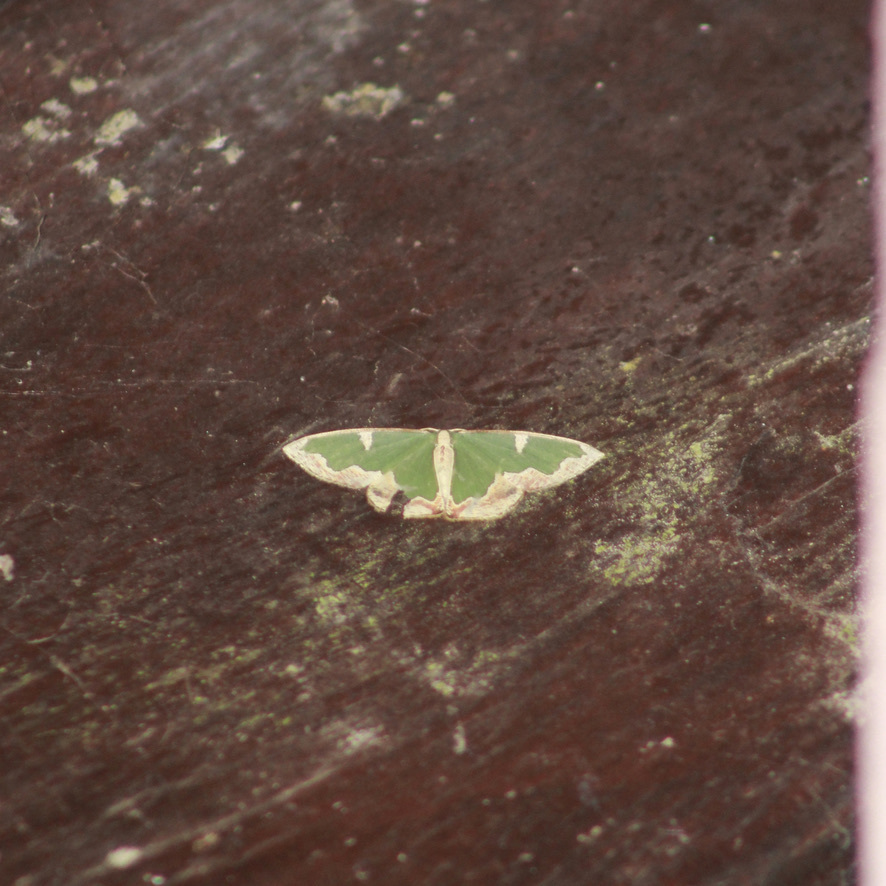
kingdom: Animalia
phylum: Arthropoda
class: Insecta
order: Lepidoptera
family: Geometridae
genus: Oospila
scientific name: Oospila venezuelata
